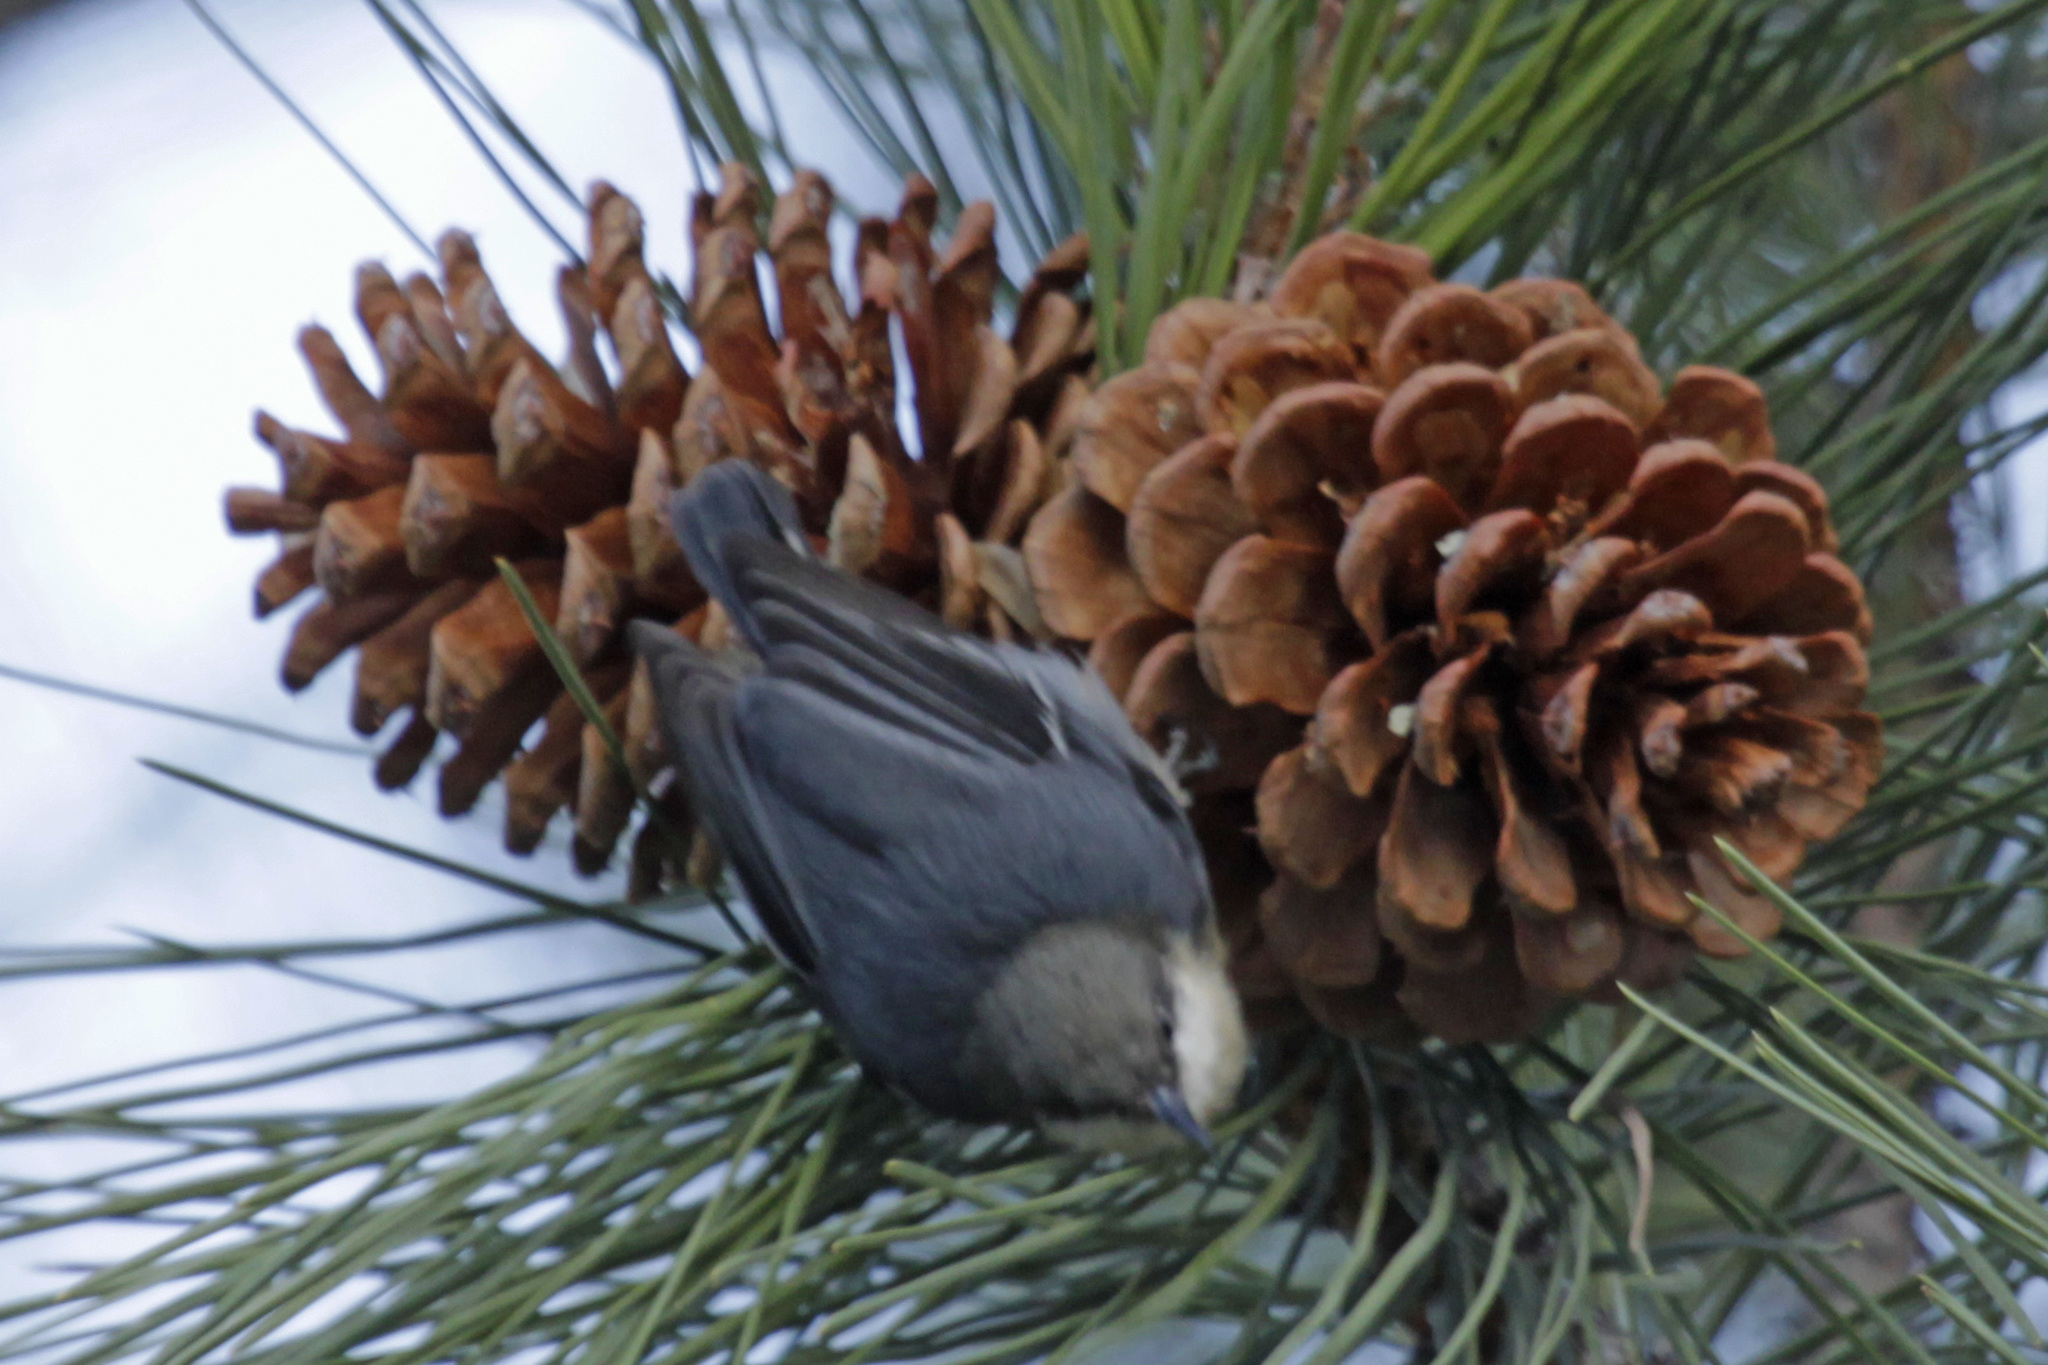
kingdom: Animalia
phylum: Chordata
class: Aves
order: Passeriformes
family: Sittidae
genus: Sitta
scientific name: Sitta pygmaea
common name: Pygmy nuthatch
